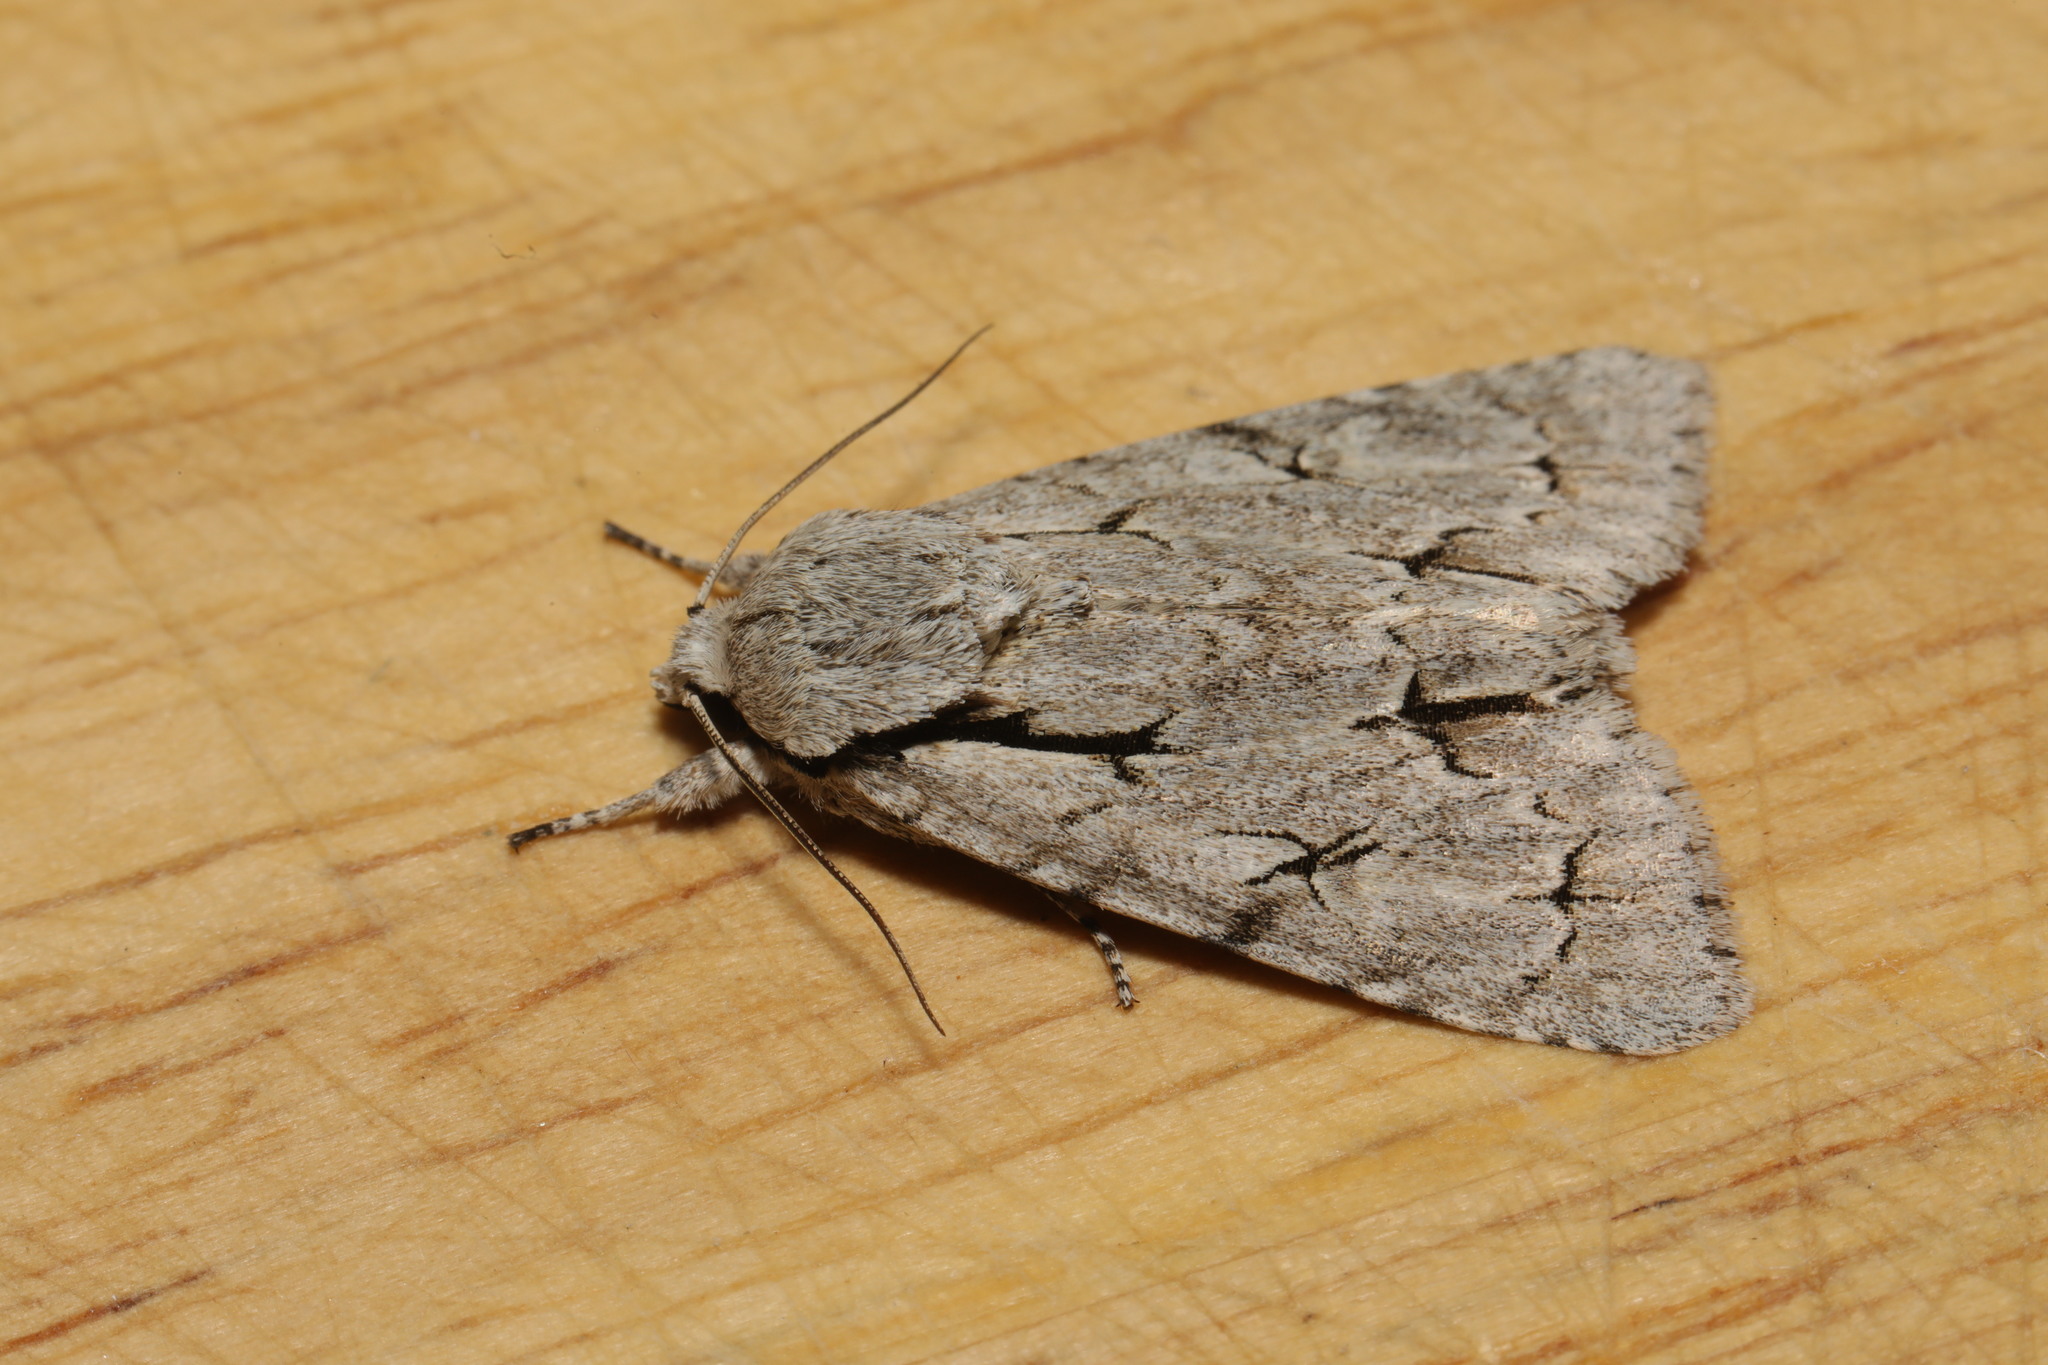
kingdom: Animalia
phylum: Arthropoda
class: Insecta
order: Lepidoptera
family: Noctuidae
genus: Acronicta
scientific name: Acronicta psi
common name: Grey dagger
